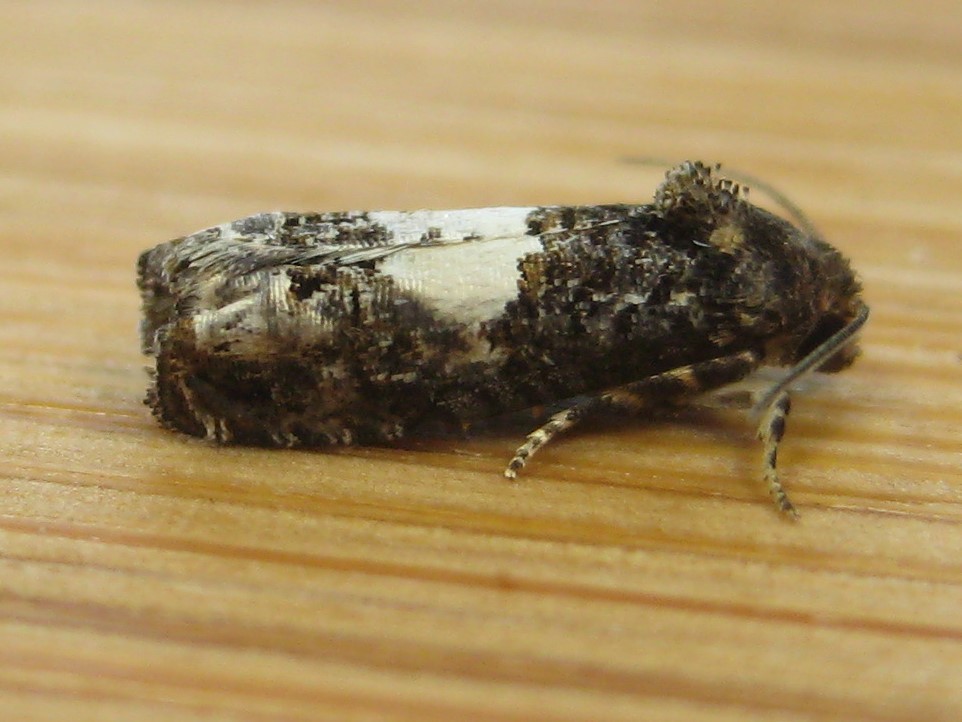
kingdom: Animalia
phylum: Arthropoda
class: Insecta
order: Lepidoptera
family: Tortricidae
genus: Epiblema
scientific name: Epiblema infelix
